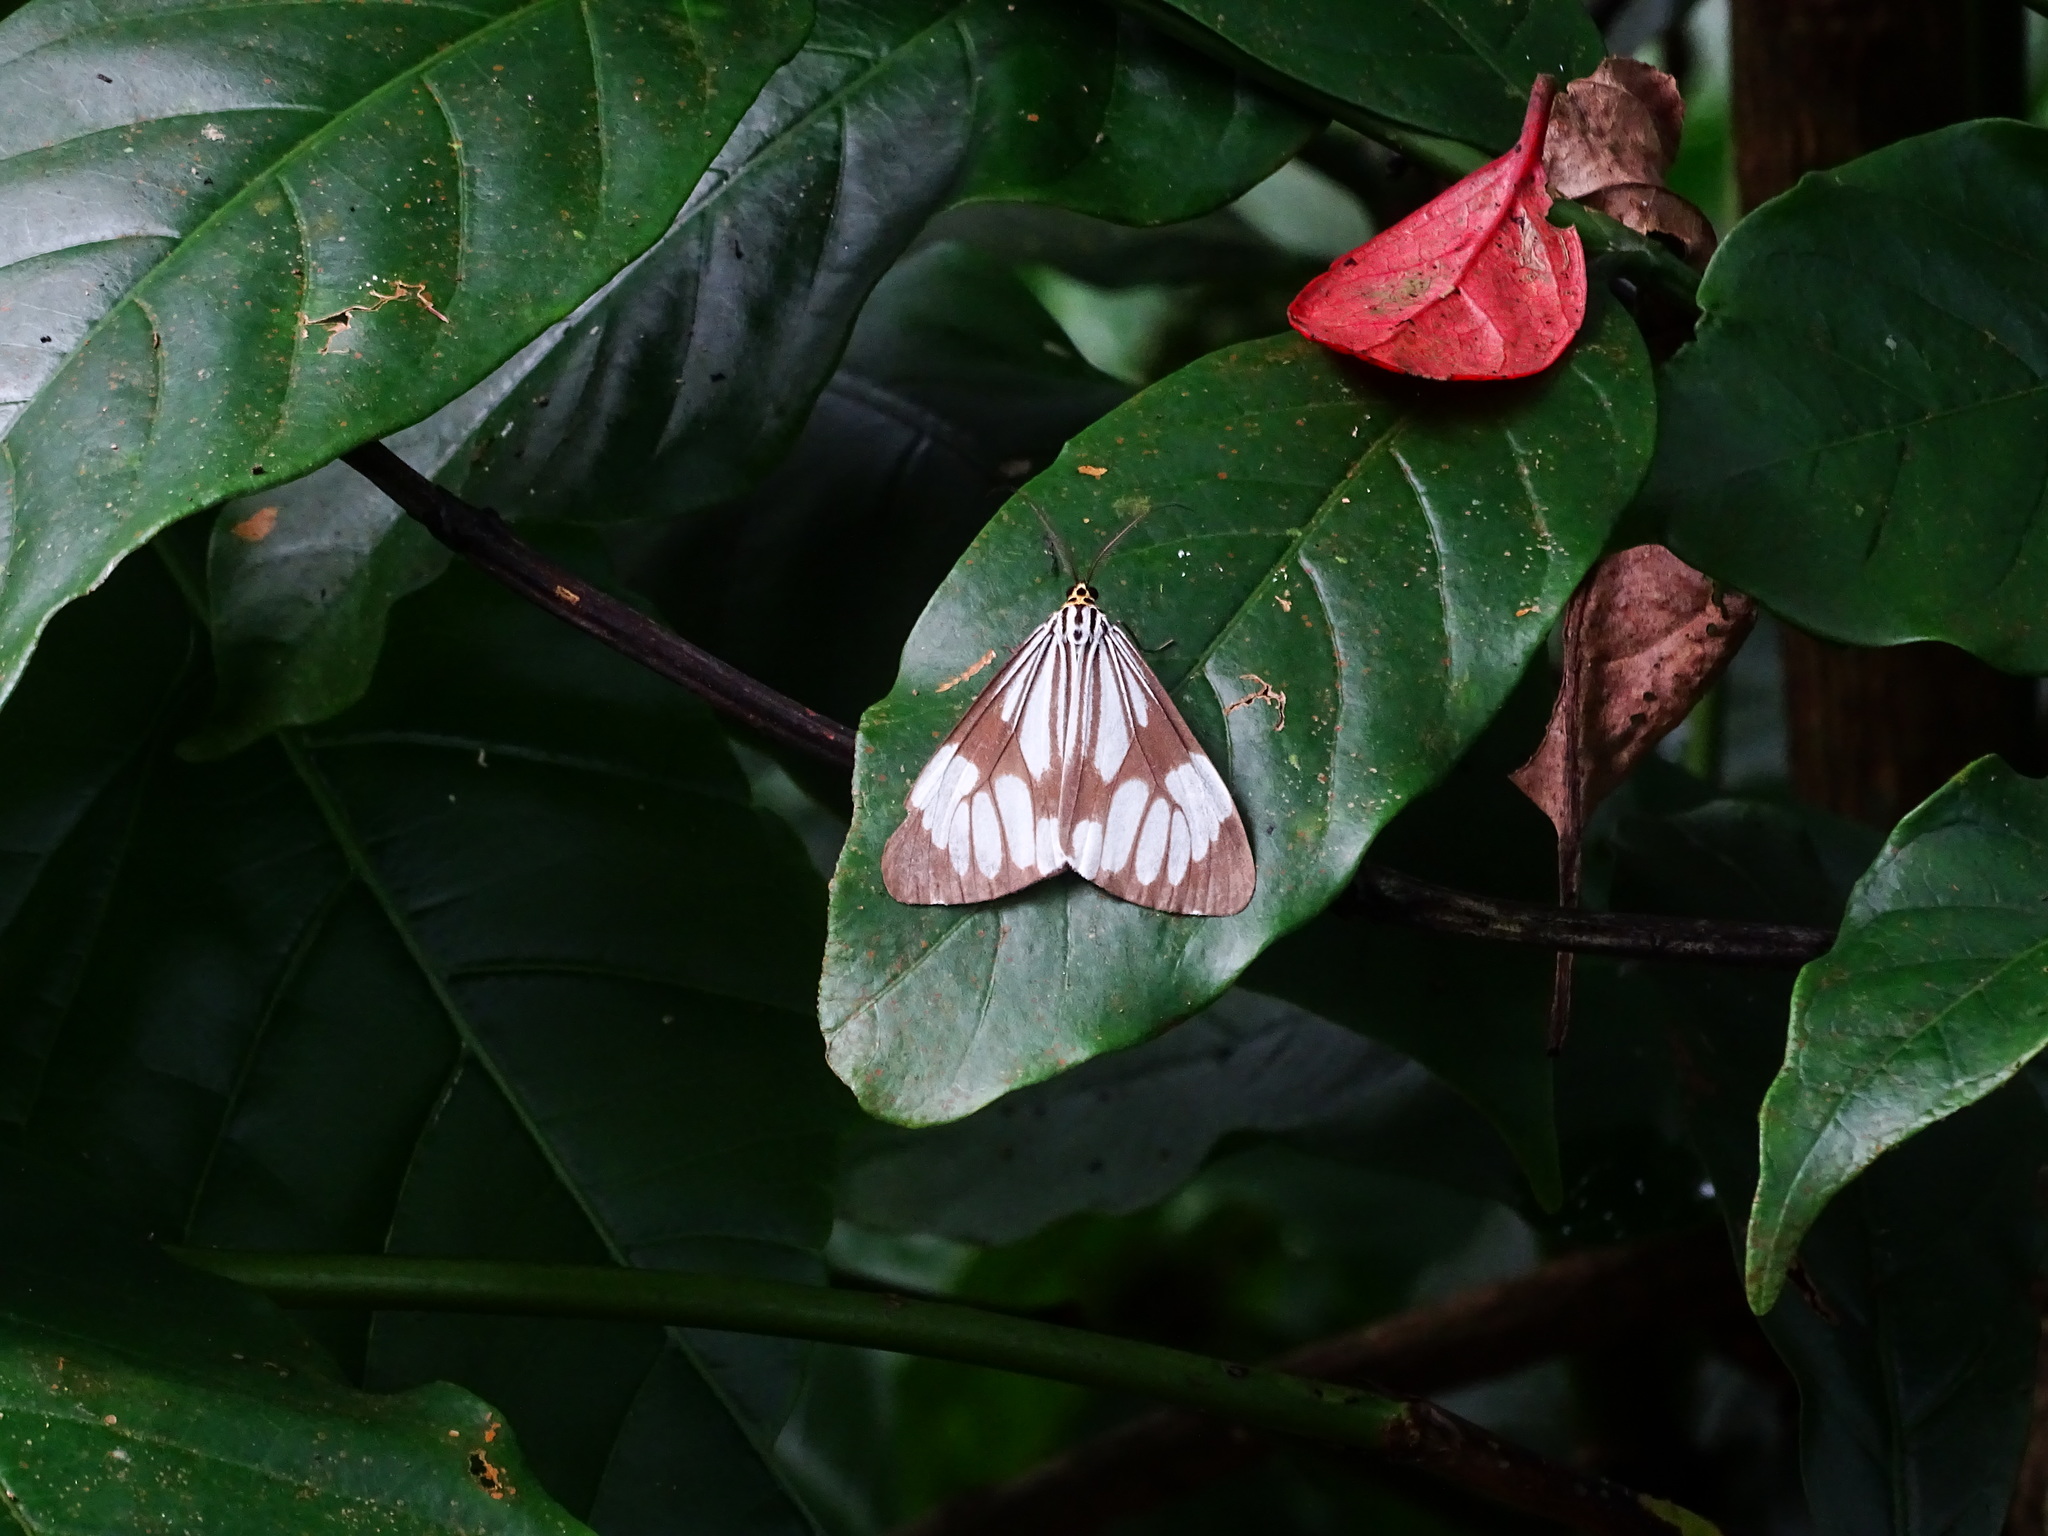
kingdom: Animalia
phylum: Arthropoda
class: Insecta
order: Lepidoptera
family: Erebidae
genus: Nyctemera
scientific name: Nyctemera coleta
